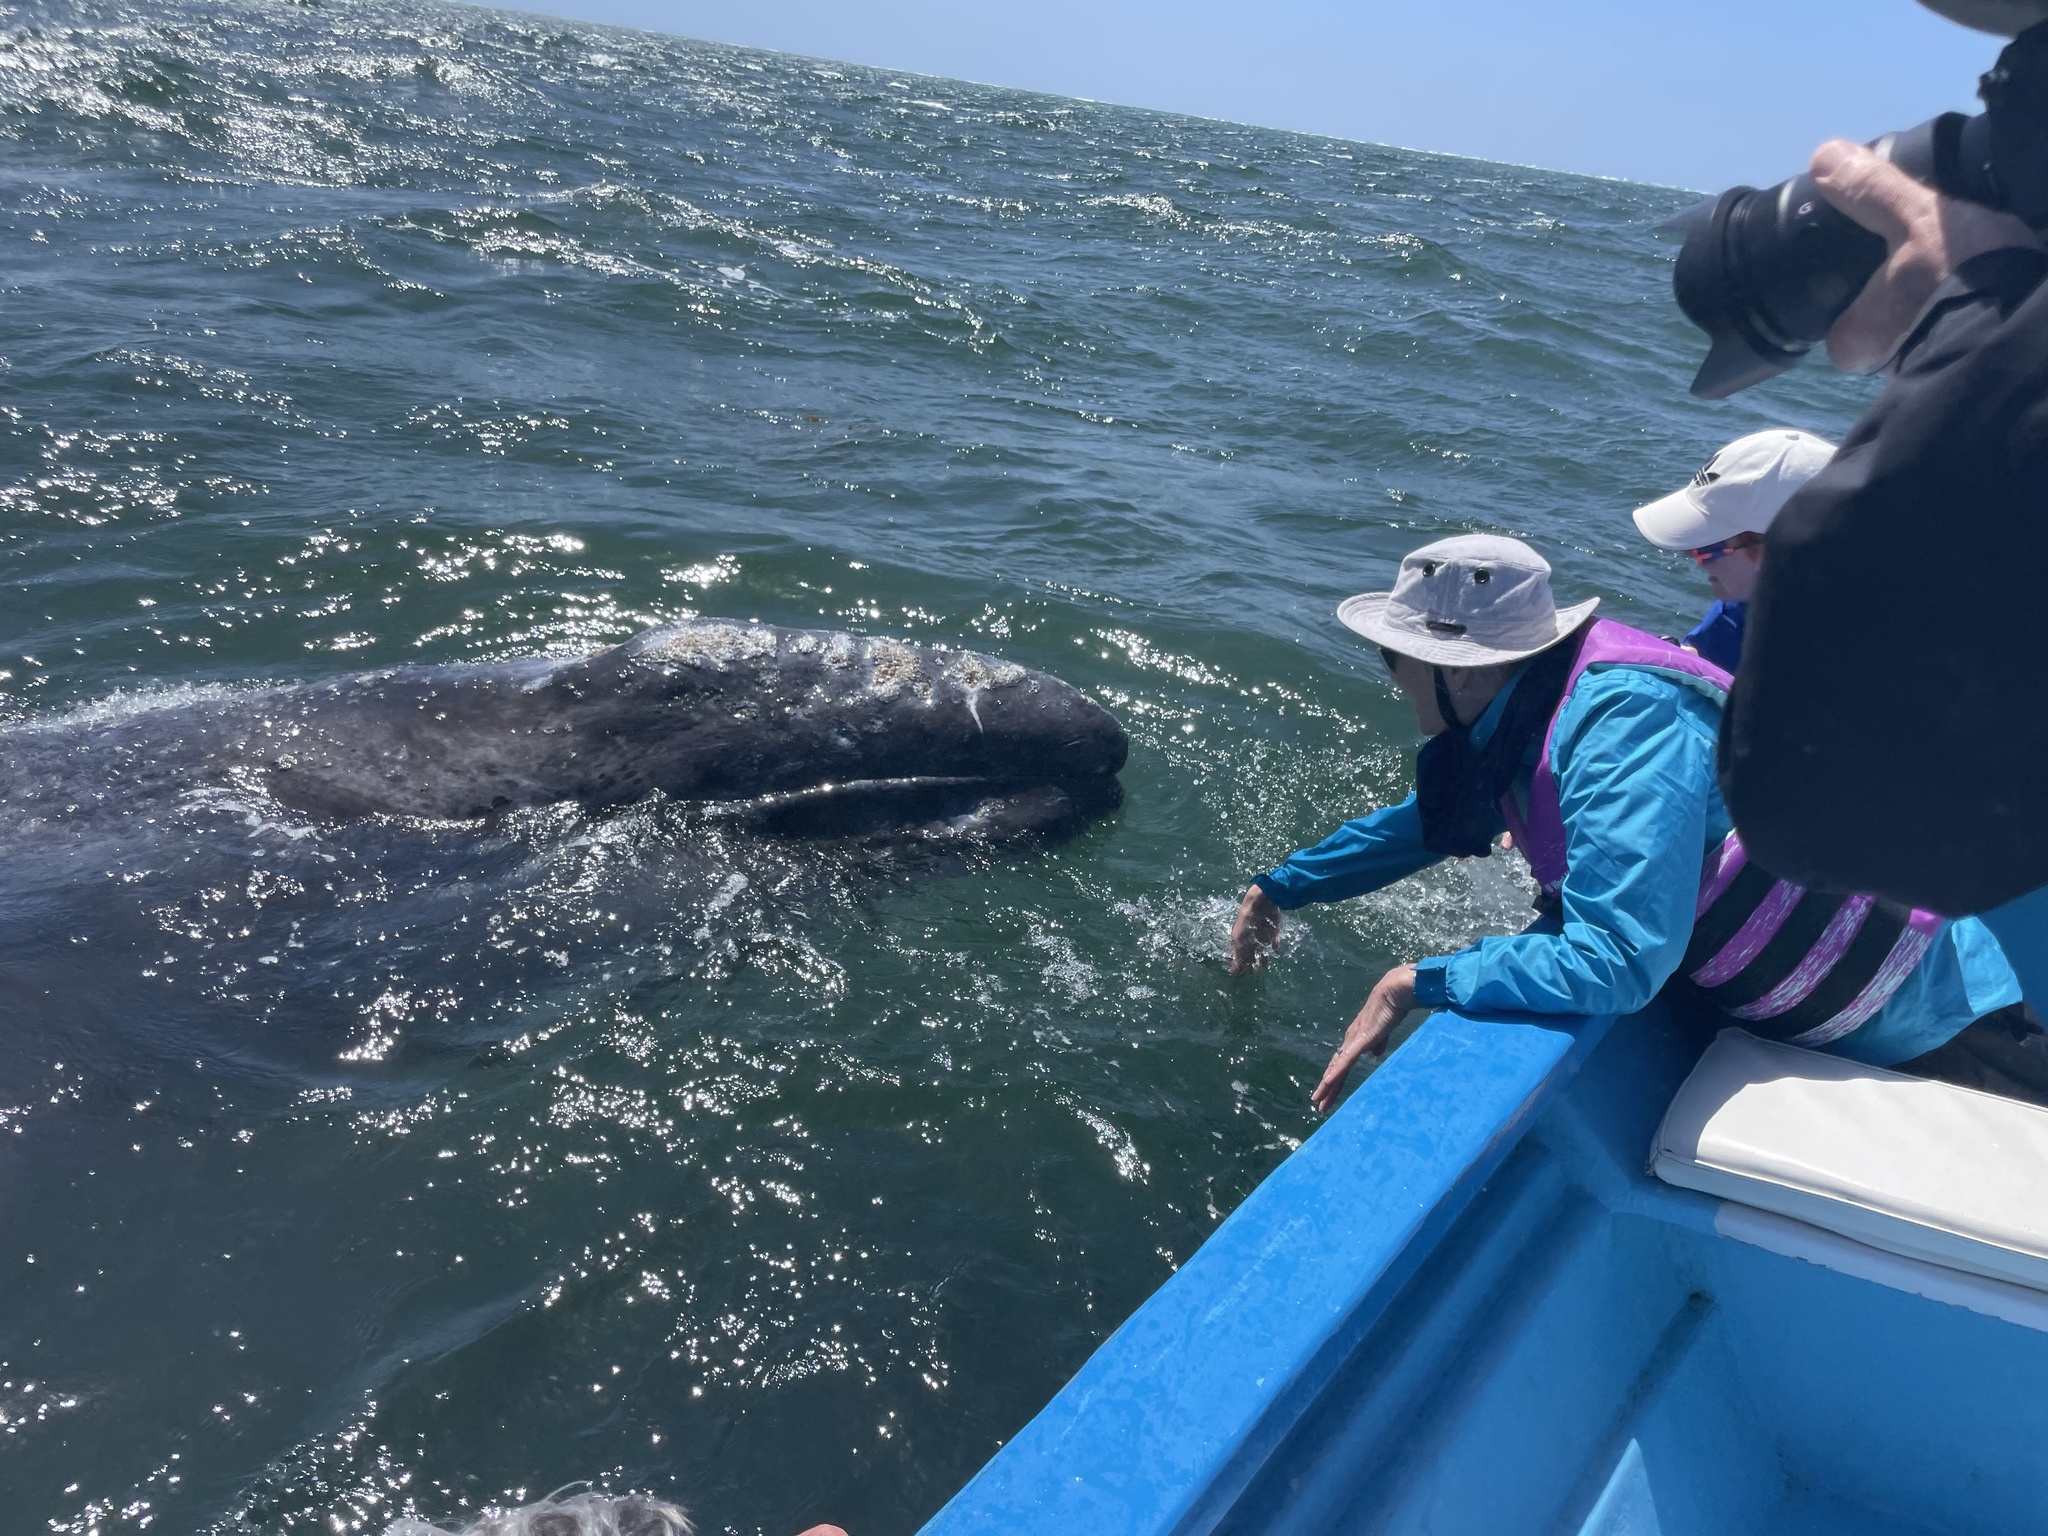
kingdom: Animalia
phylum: Chordata
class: Mammalia
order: Cetacea
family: Eschrichtiidae
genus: Eschrichtius
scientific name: Eschrichtius robustus
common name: Gray whale
